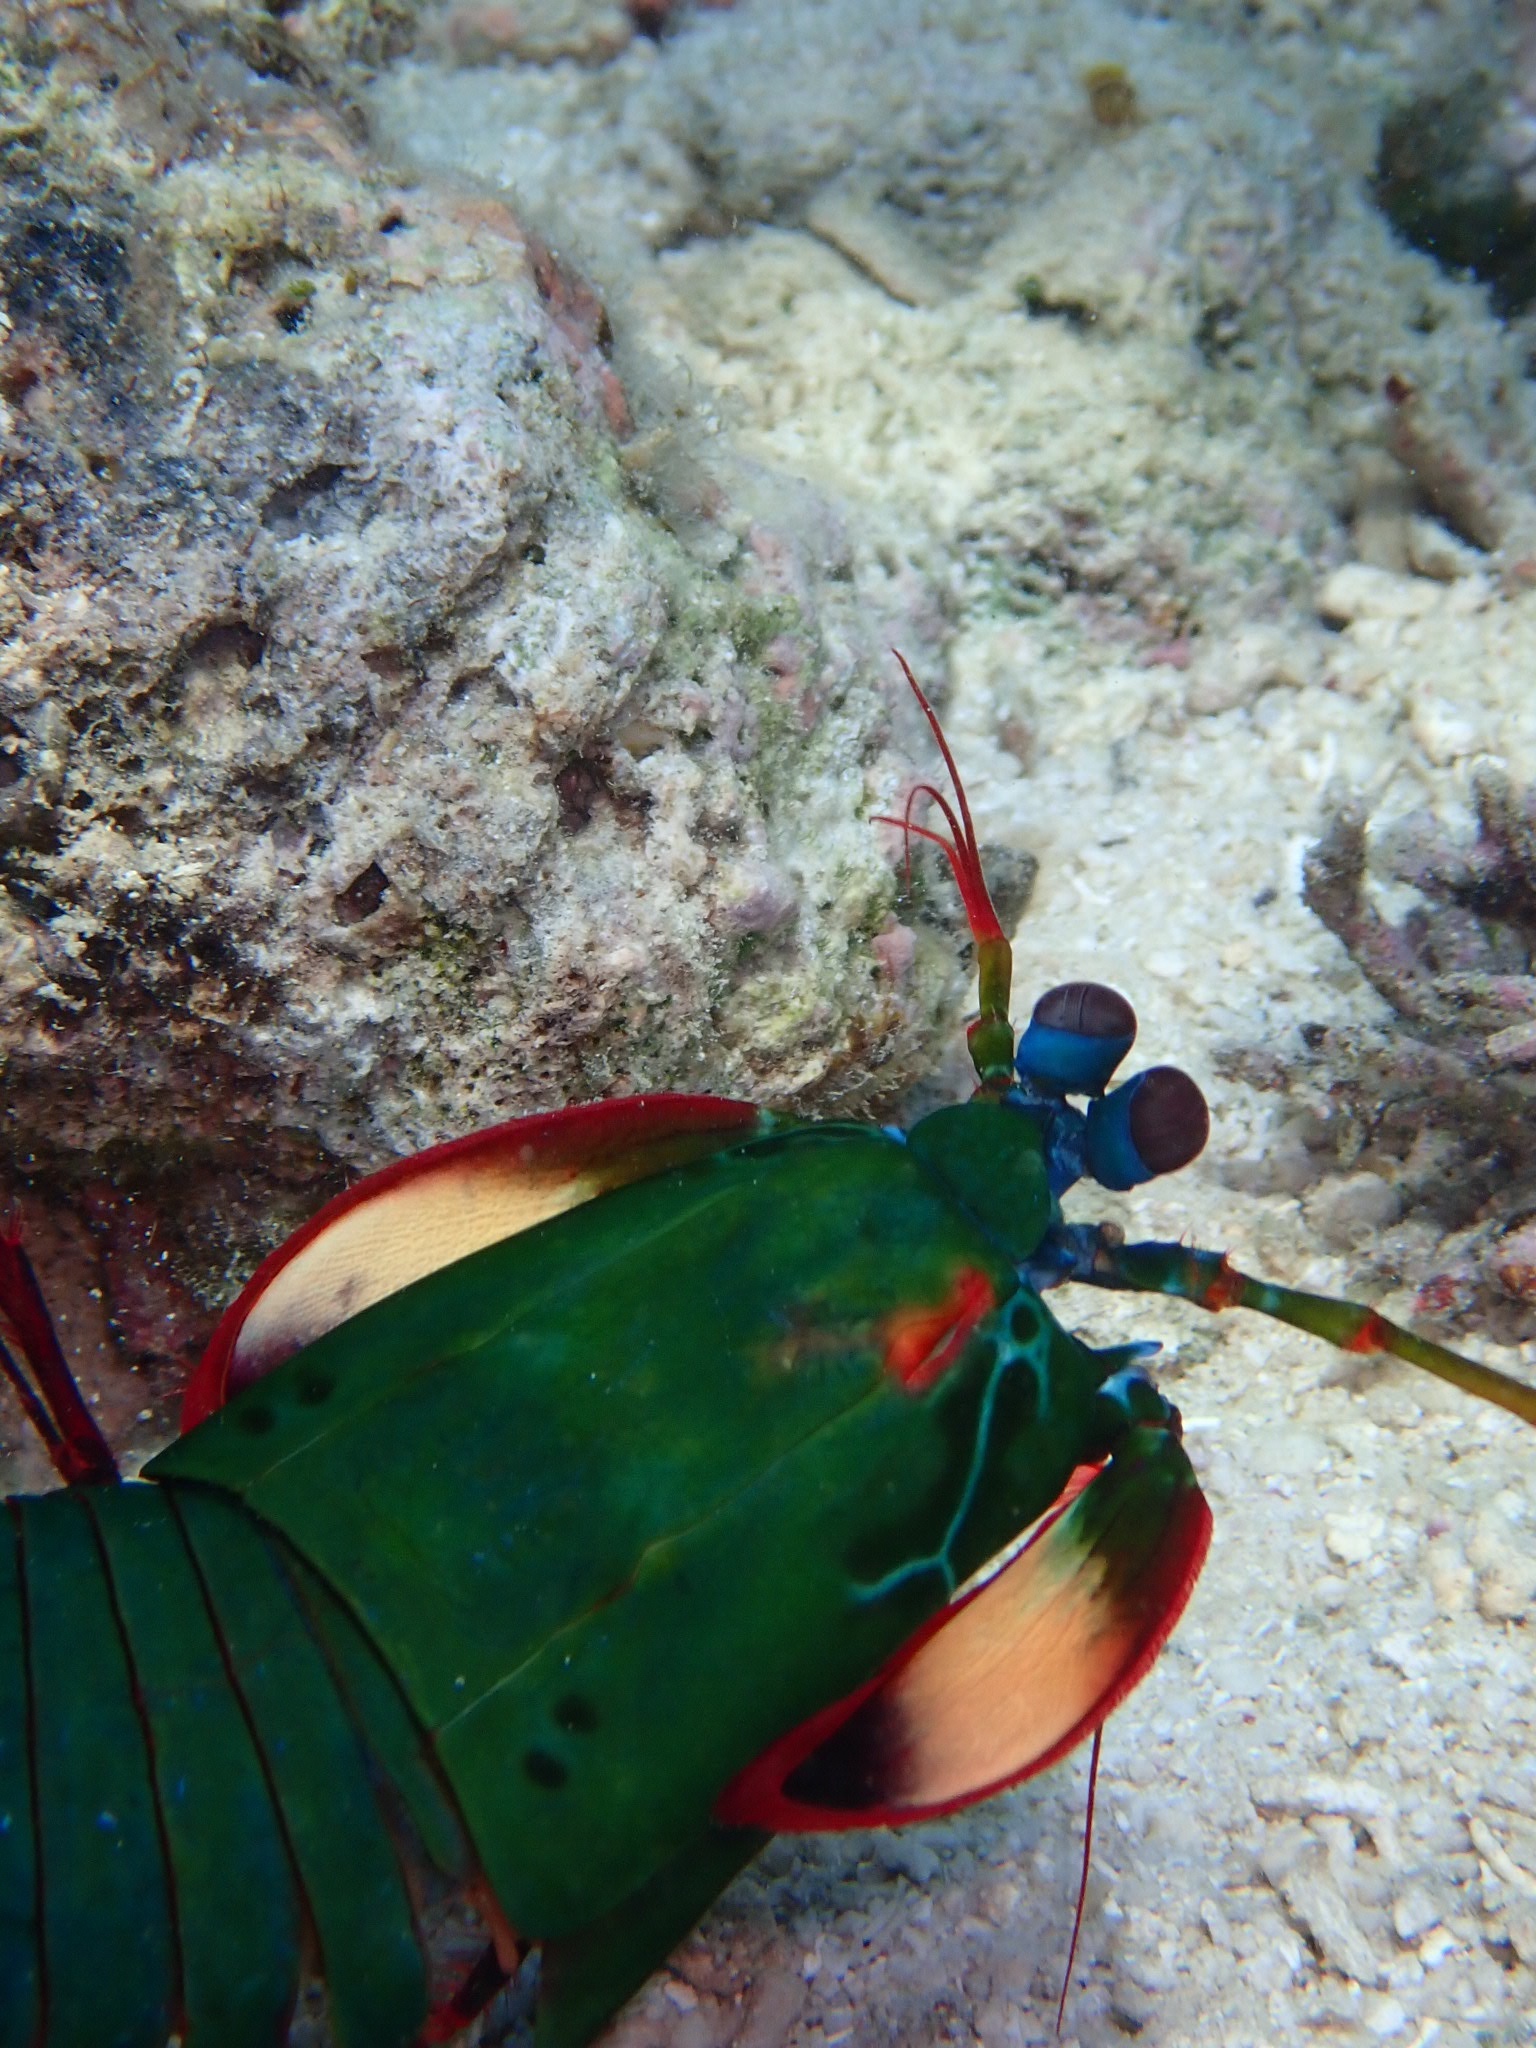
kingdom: Animalia
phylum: Arthropoda
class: Malacostraca
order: Stomatopoda
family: Odontodactylidae
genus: Odontodactylus
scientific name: Odontodactylus scyllarus
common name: Peacock mantis shrimp
